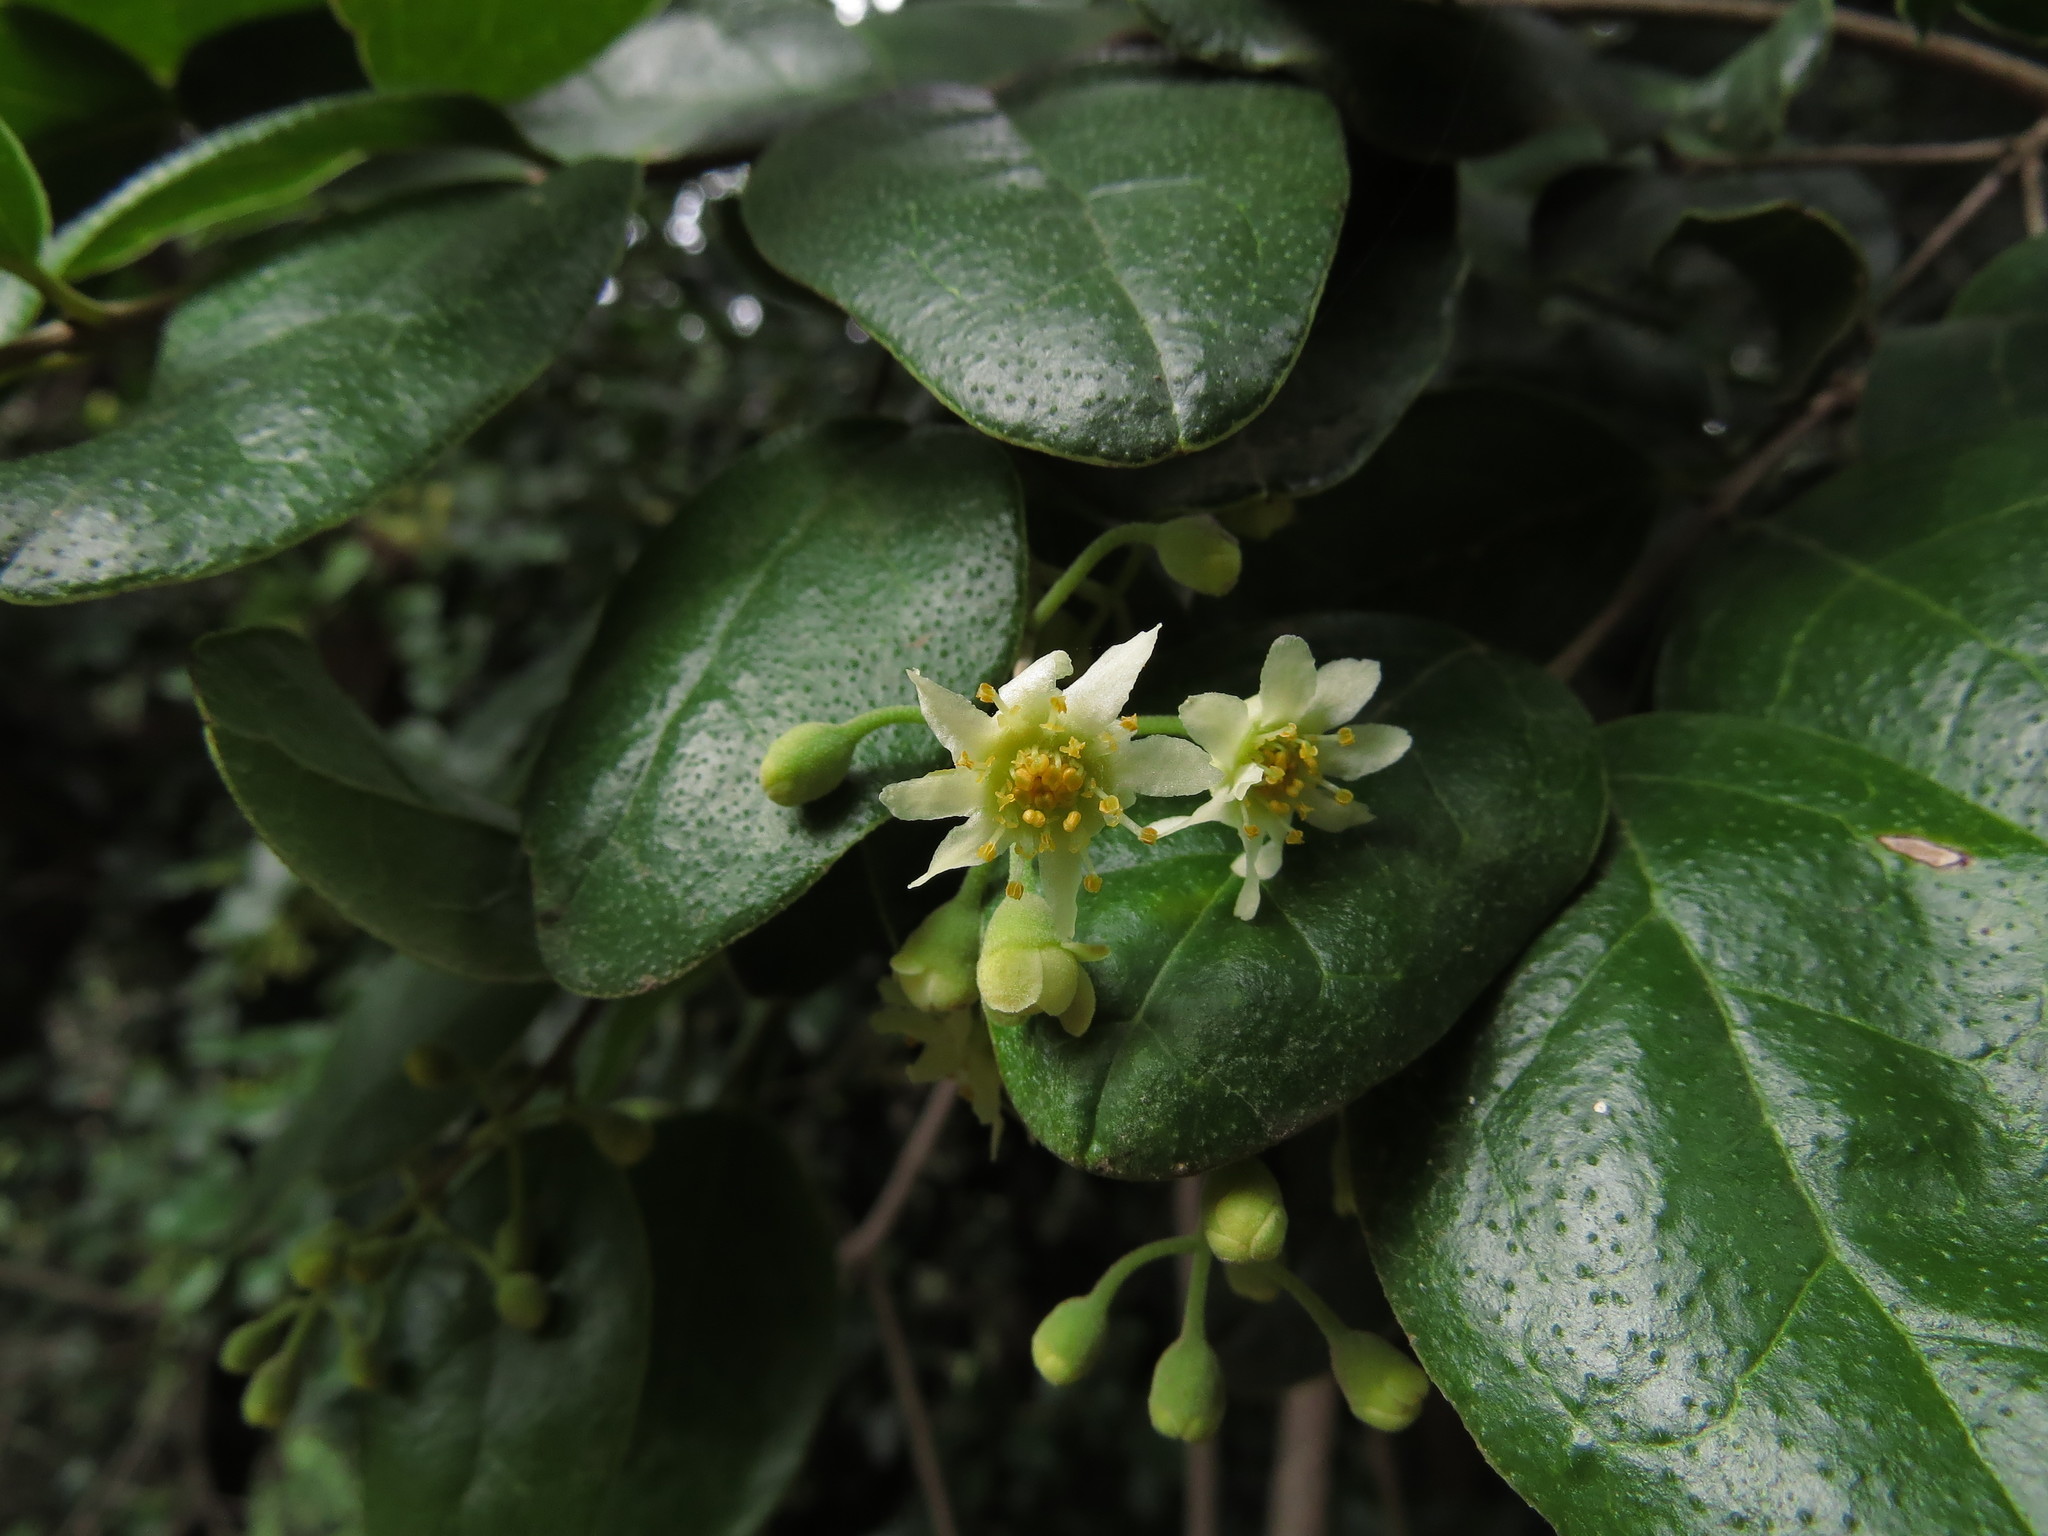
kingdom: Plantae
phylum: Tracheophyta
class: Magnoliopsida
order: Laurales
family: Monimiaceae
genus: Peumus
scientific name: Peumus boldus
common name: Boldo
